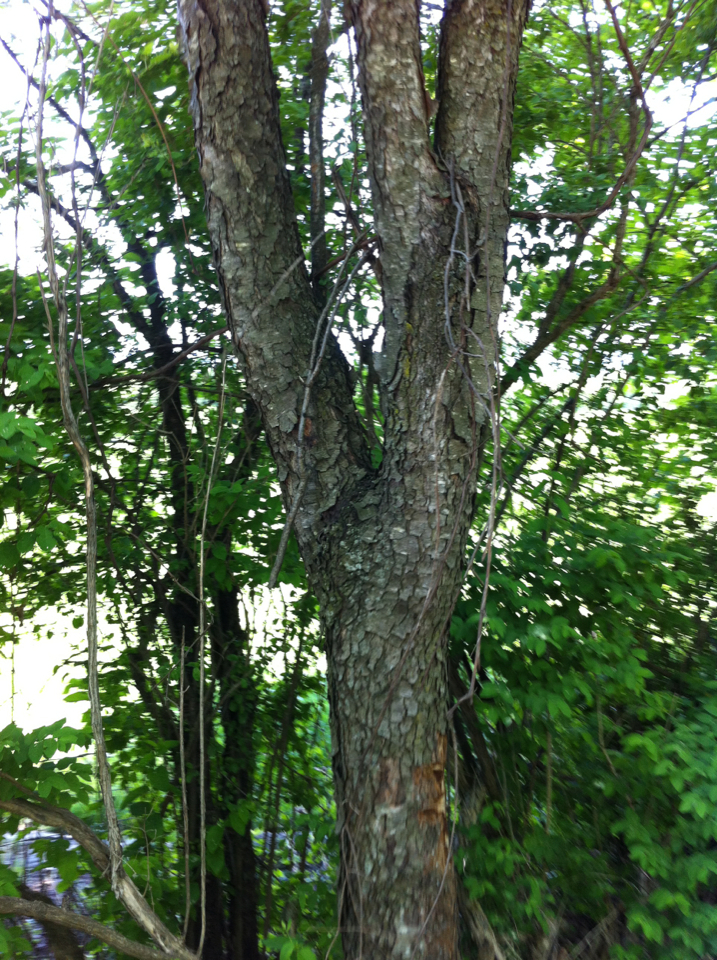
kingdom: Plantae
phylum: Tracheophyta
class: Magnoliopsida
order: Rosales
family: Rosaceae
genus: Prunus
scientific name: Prunus serotina
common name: Black cherry
